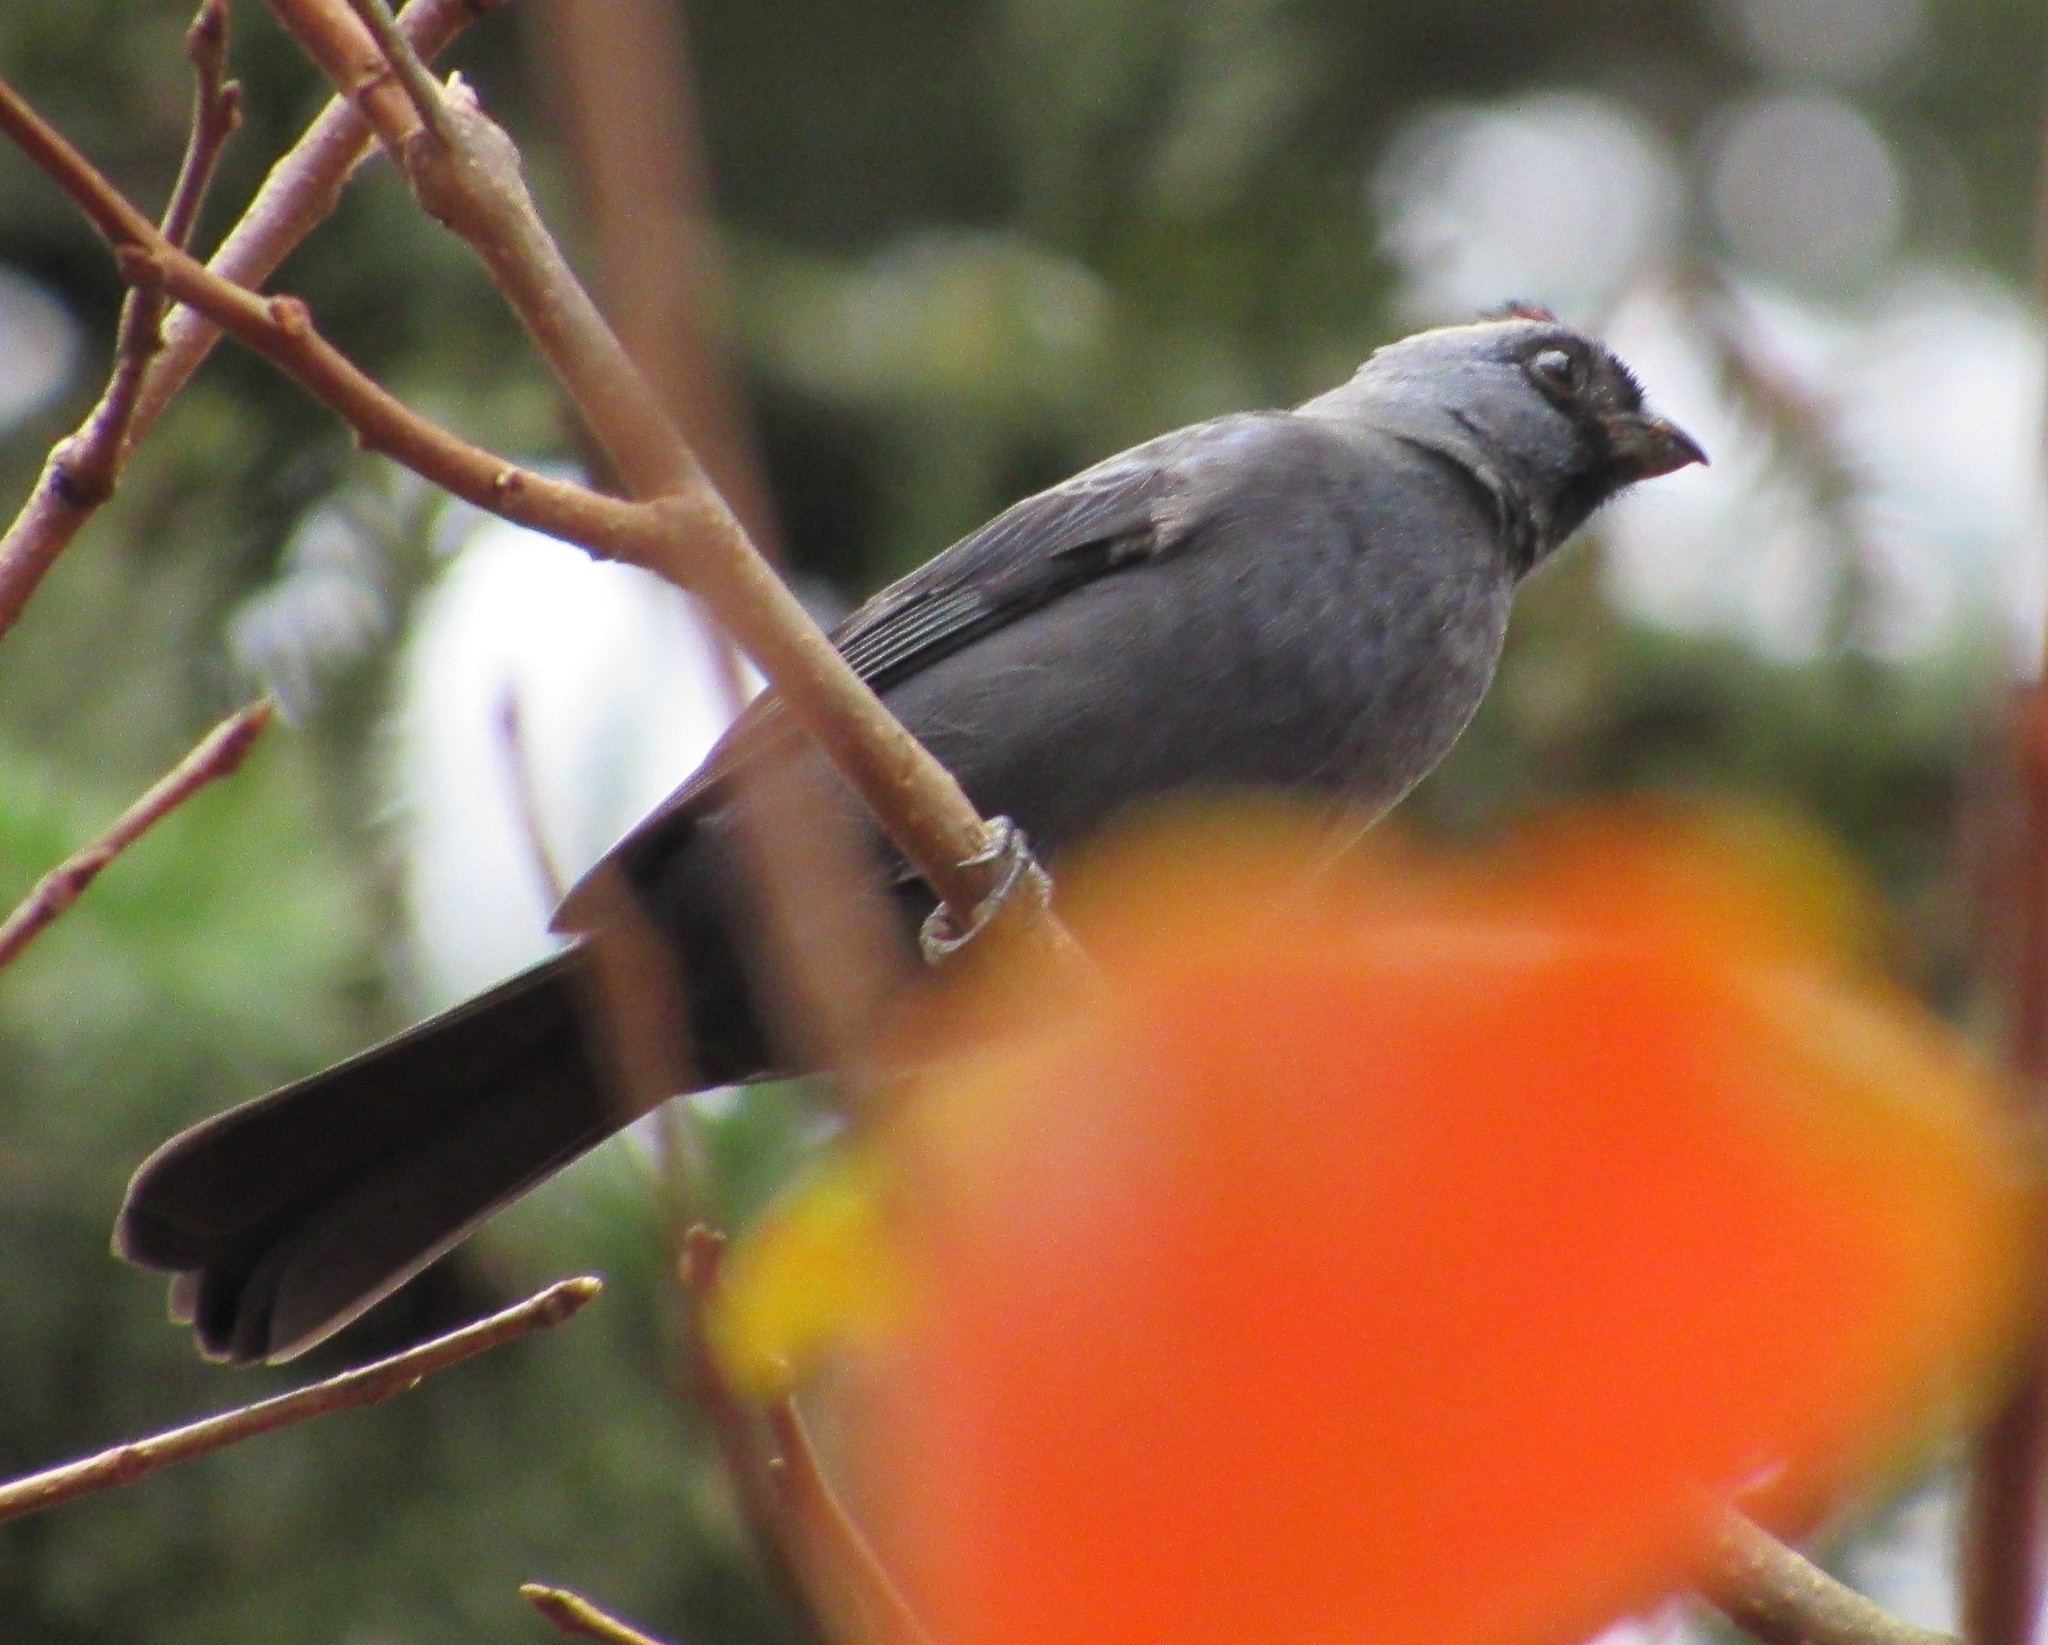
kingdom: Animalia
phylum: Chordata
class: Aves
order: Passeriformes
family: Thraupidae
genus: Stephanophorus
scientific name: Stephanophorus diadematus
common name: Diademed tanager
